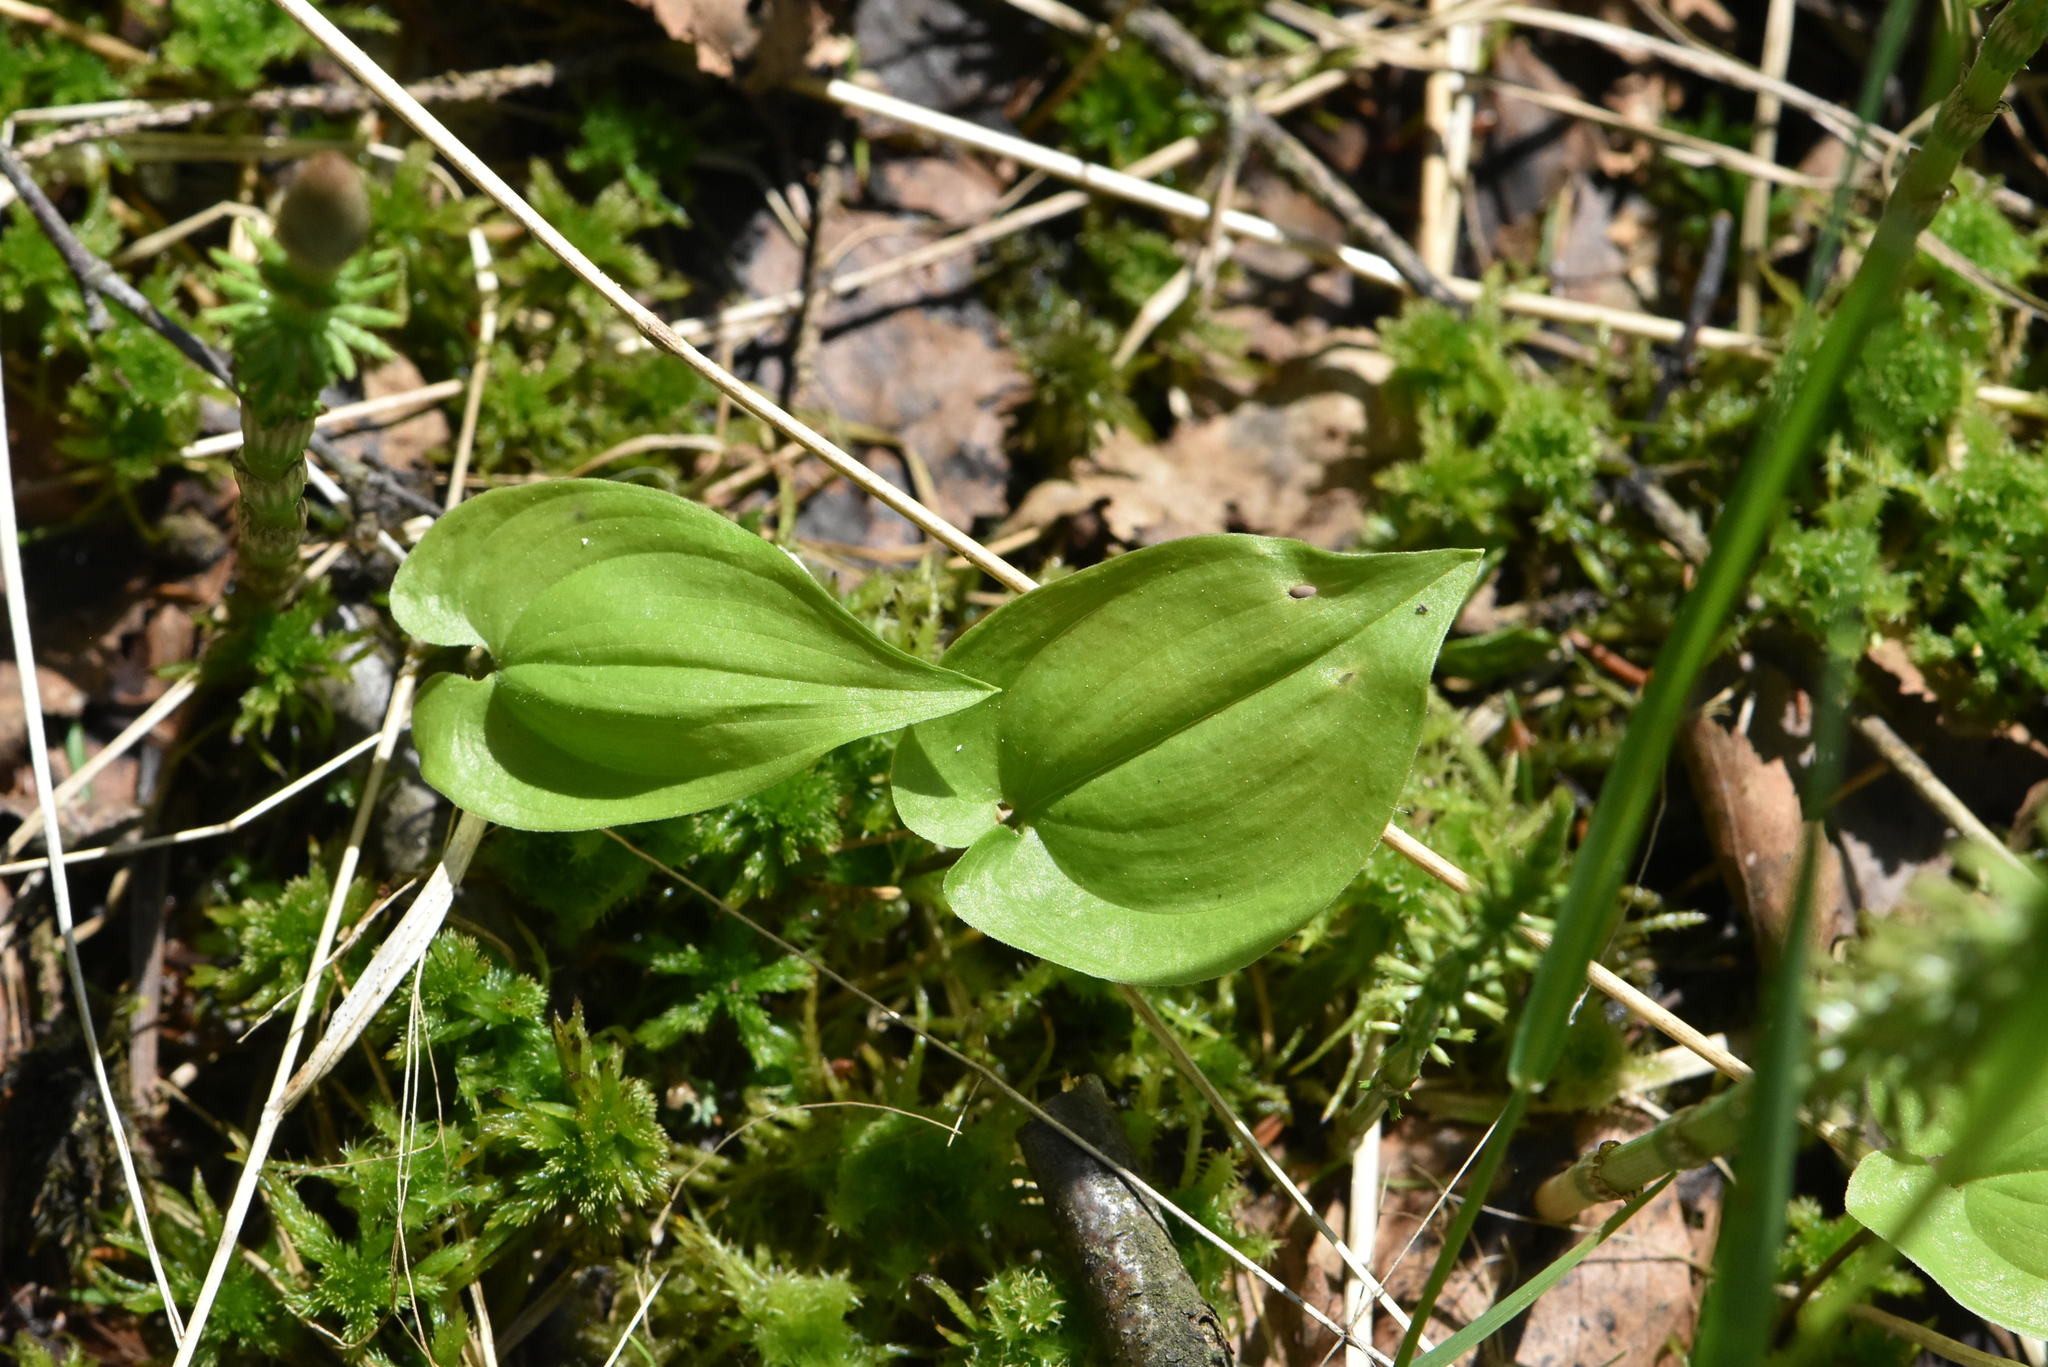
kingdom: Plantae
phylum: Tracheophyta
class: Liliopsida
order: Asparagales
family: Asparagaceae
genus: Maianthemum
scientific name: Maianthemum bifolium
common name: May lily
